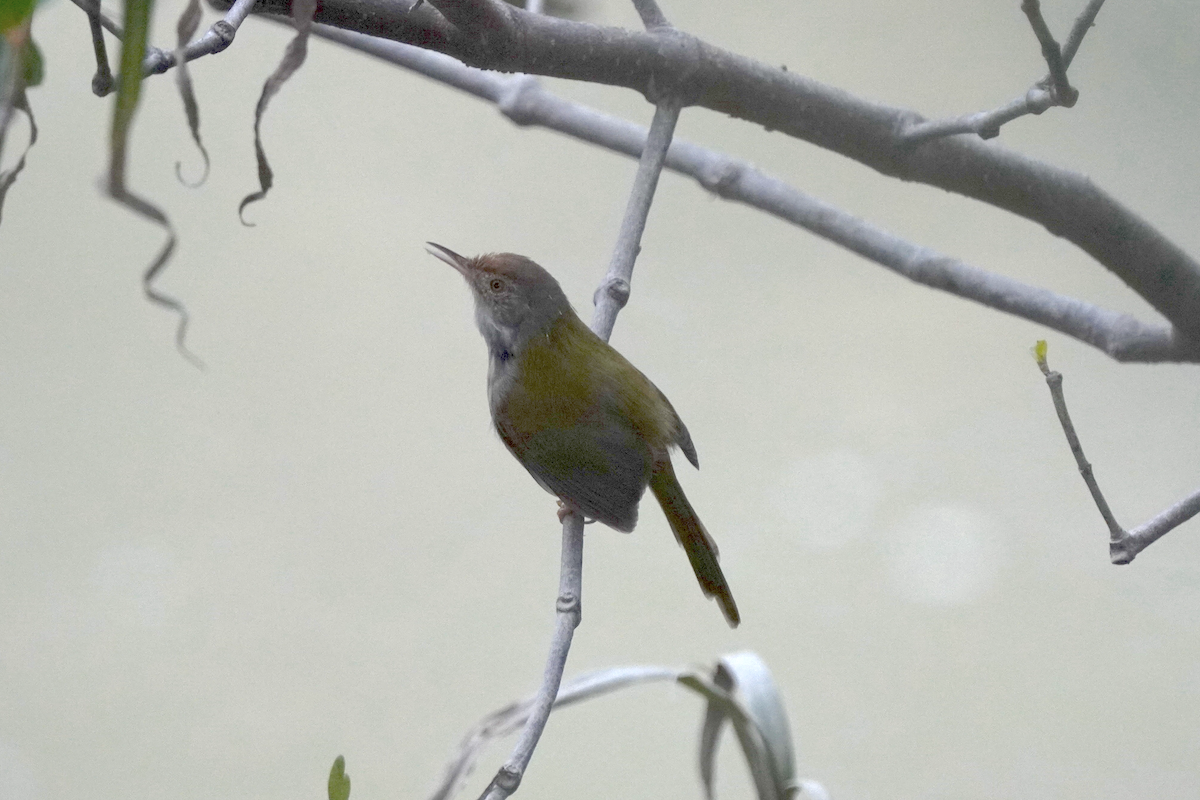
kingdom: Animalia
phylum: Chordata
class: Aves
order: Passeriformes
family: Cisticolidae
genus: Orthotomus
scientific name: Orthotomus sutorius
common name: Common tailorbird
